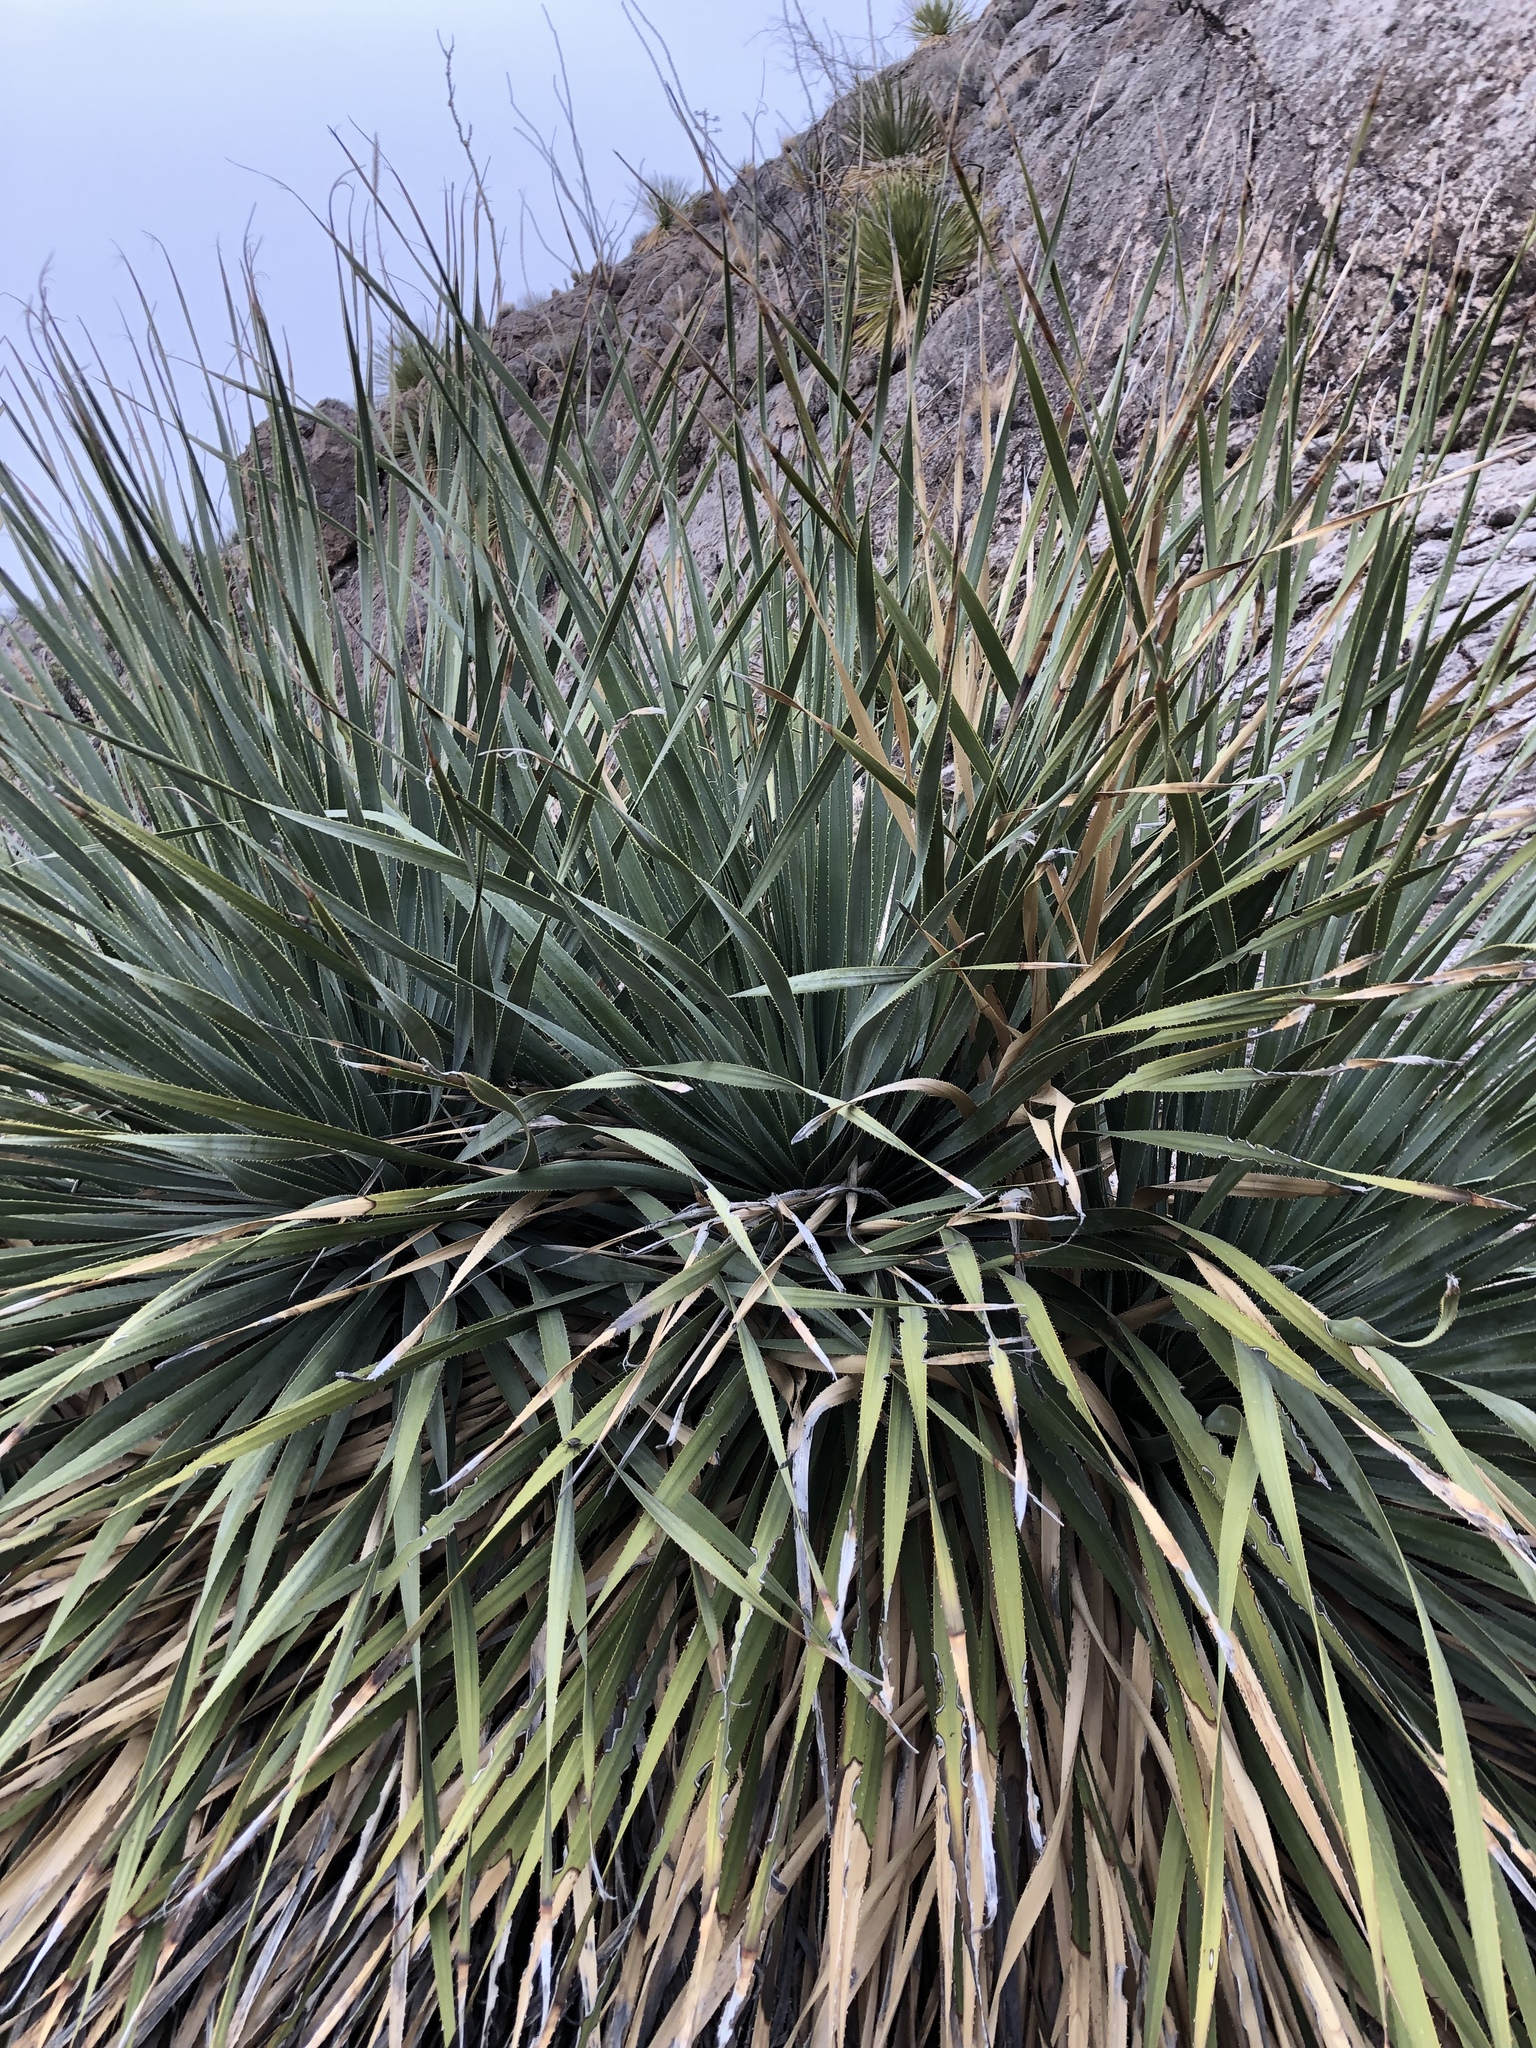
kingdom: Plantae
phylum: Tracheophyta
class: Liliopsida
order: Asparagales
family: Asparagaceae
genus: Dasylirion
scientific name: Dasylirion wheeleri
